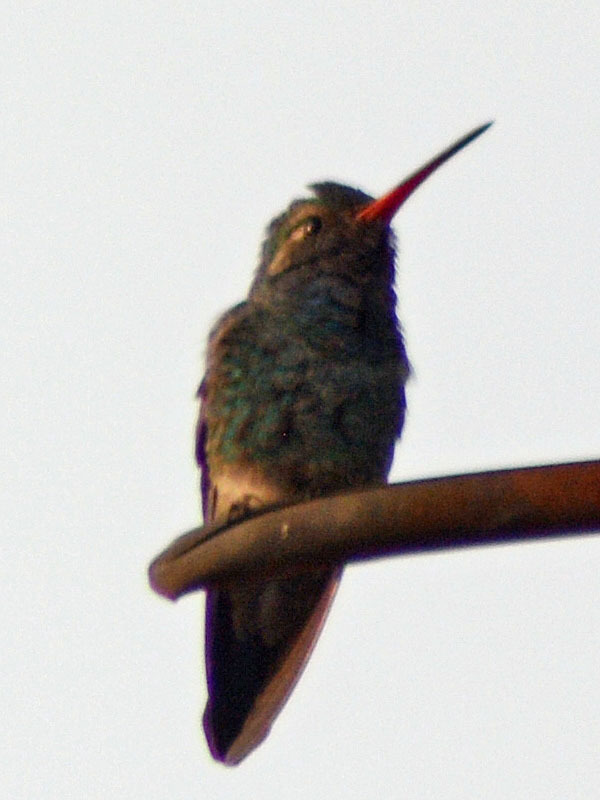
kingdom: Animalia
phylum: Chordata
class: Aves
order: Apodiformes
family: Trochilidae
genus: Cynanthus
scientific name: Cynanthus latirostris
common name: Broad-billed hummingbird
